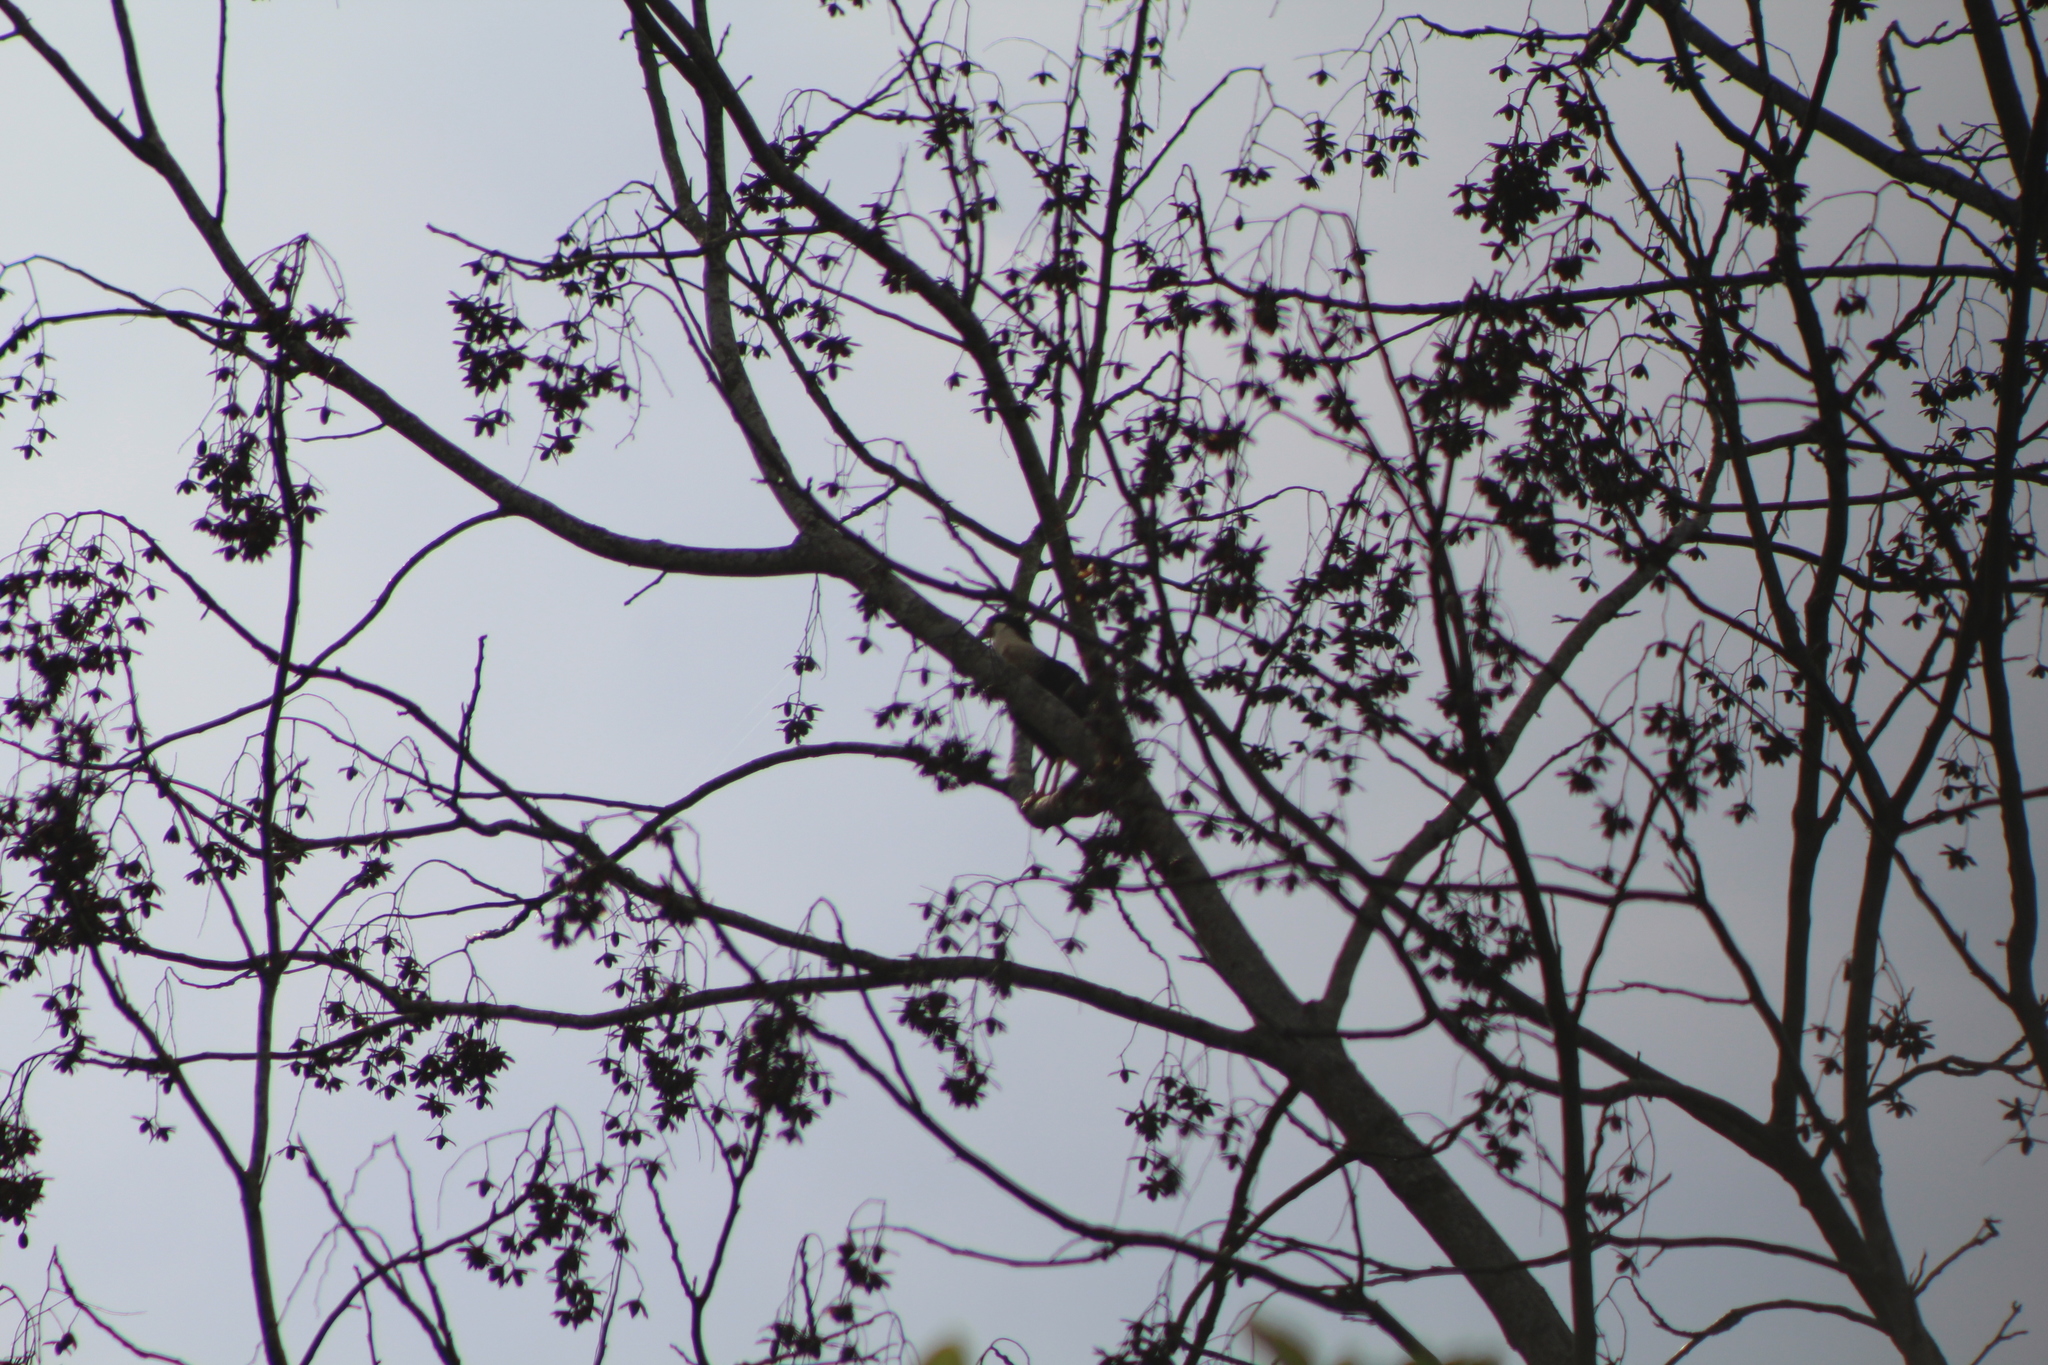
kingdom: Animalia
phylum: Chordata
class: Aves
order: Falconiformes
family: Falconidae
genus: Caracara
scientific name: Caracara plancus
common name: Southern caracara
